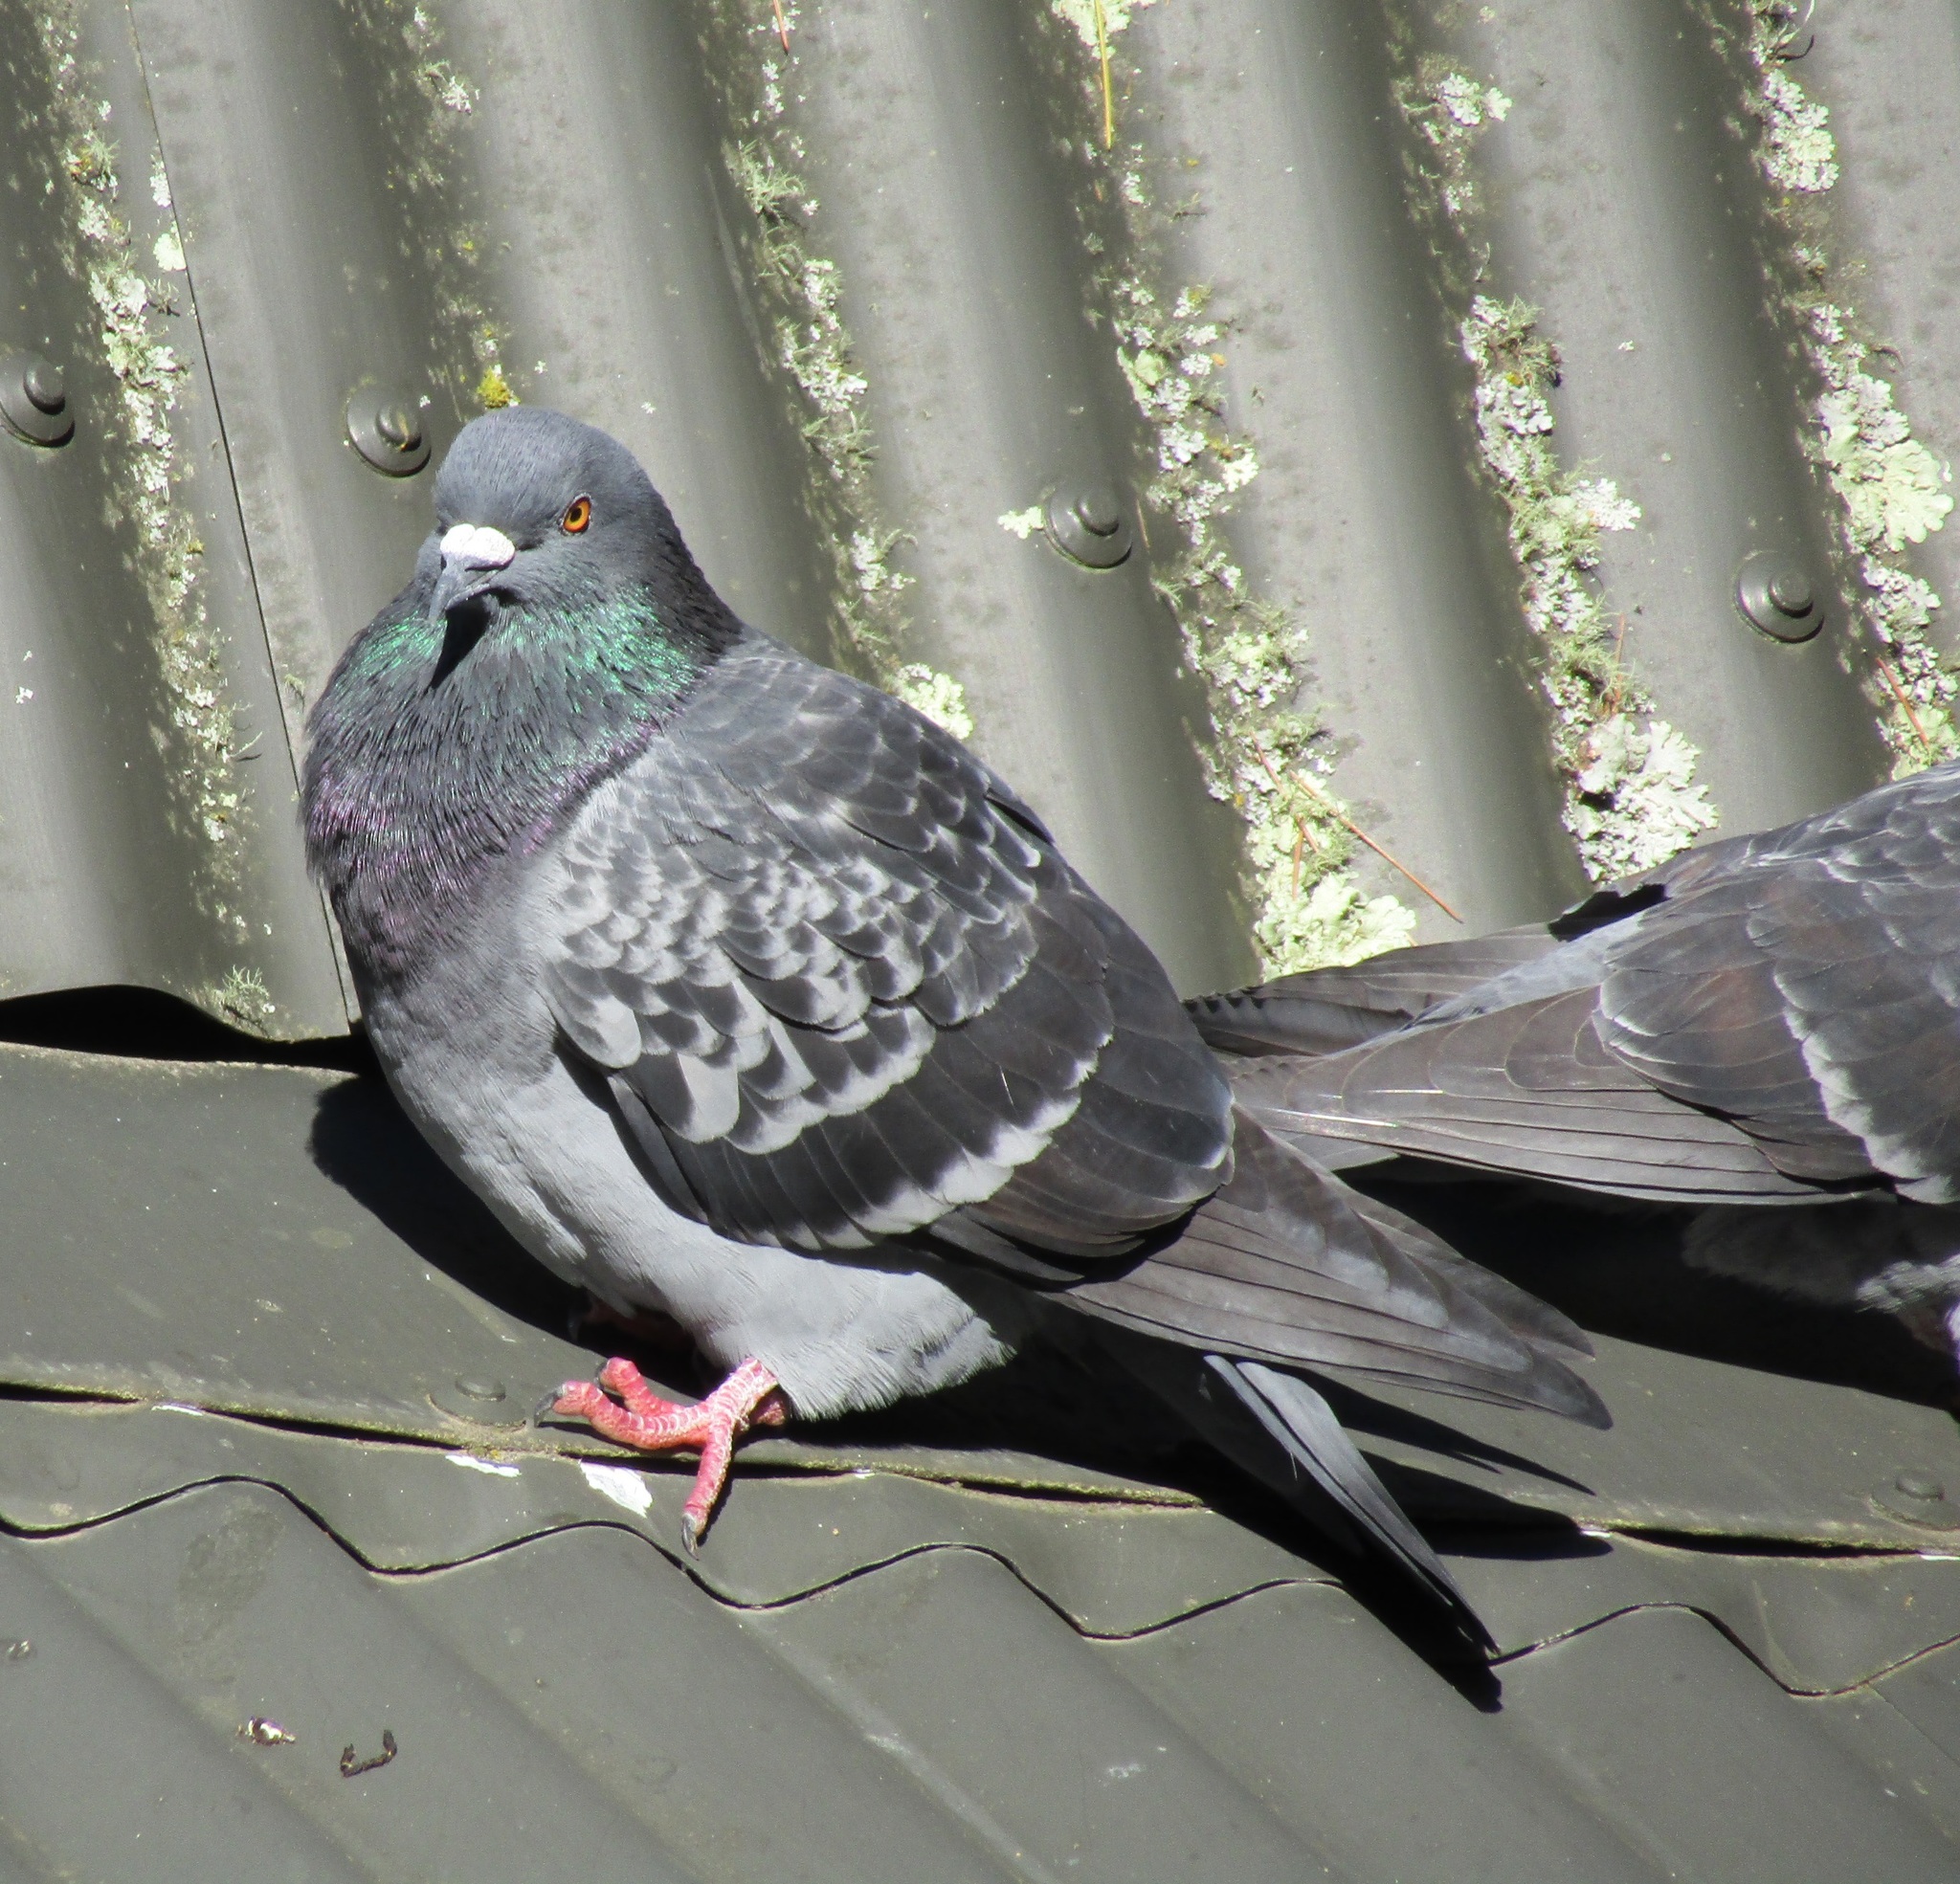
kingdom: Animalia
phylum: Chordata
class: Aves
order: Columbiformes
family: Columbidae
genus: Columba
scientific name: Columba livia
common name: Rock pigeon
